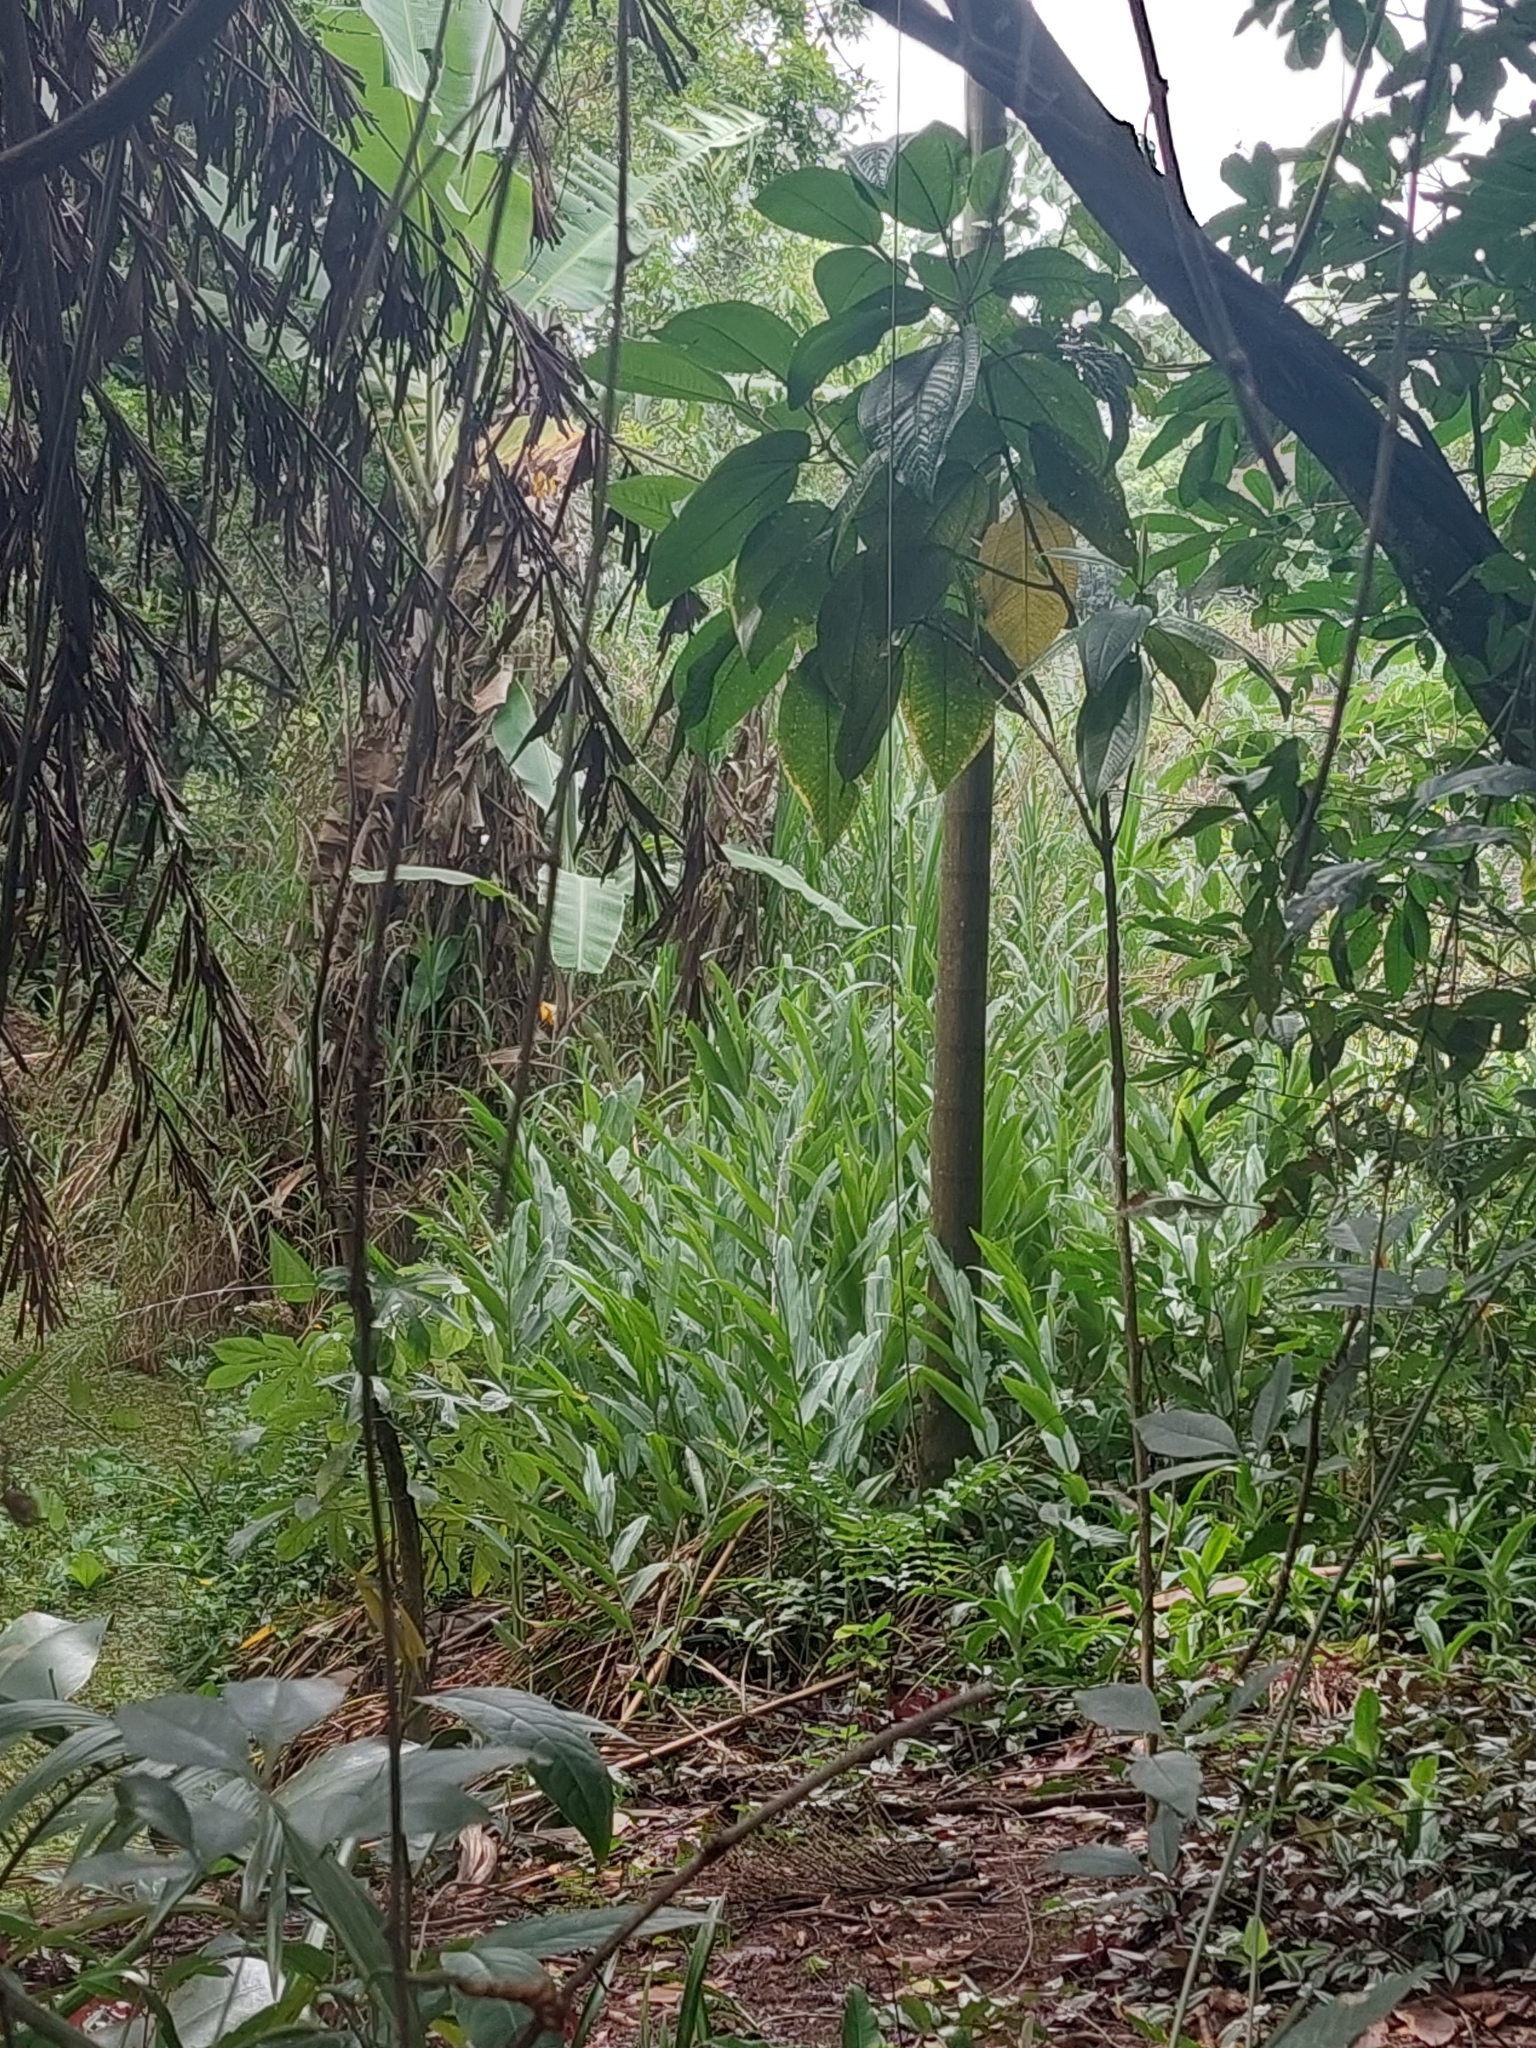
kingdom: Plantae
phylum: Tracheophyta
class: Liliopsida
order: Zingiberales
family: Zingiberaceae
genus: Hedychium
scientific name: Hedychium coronarium
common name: White garland-lily
